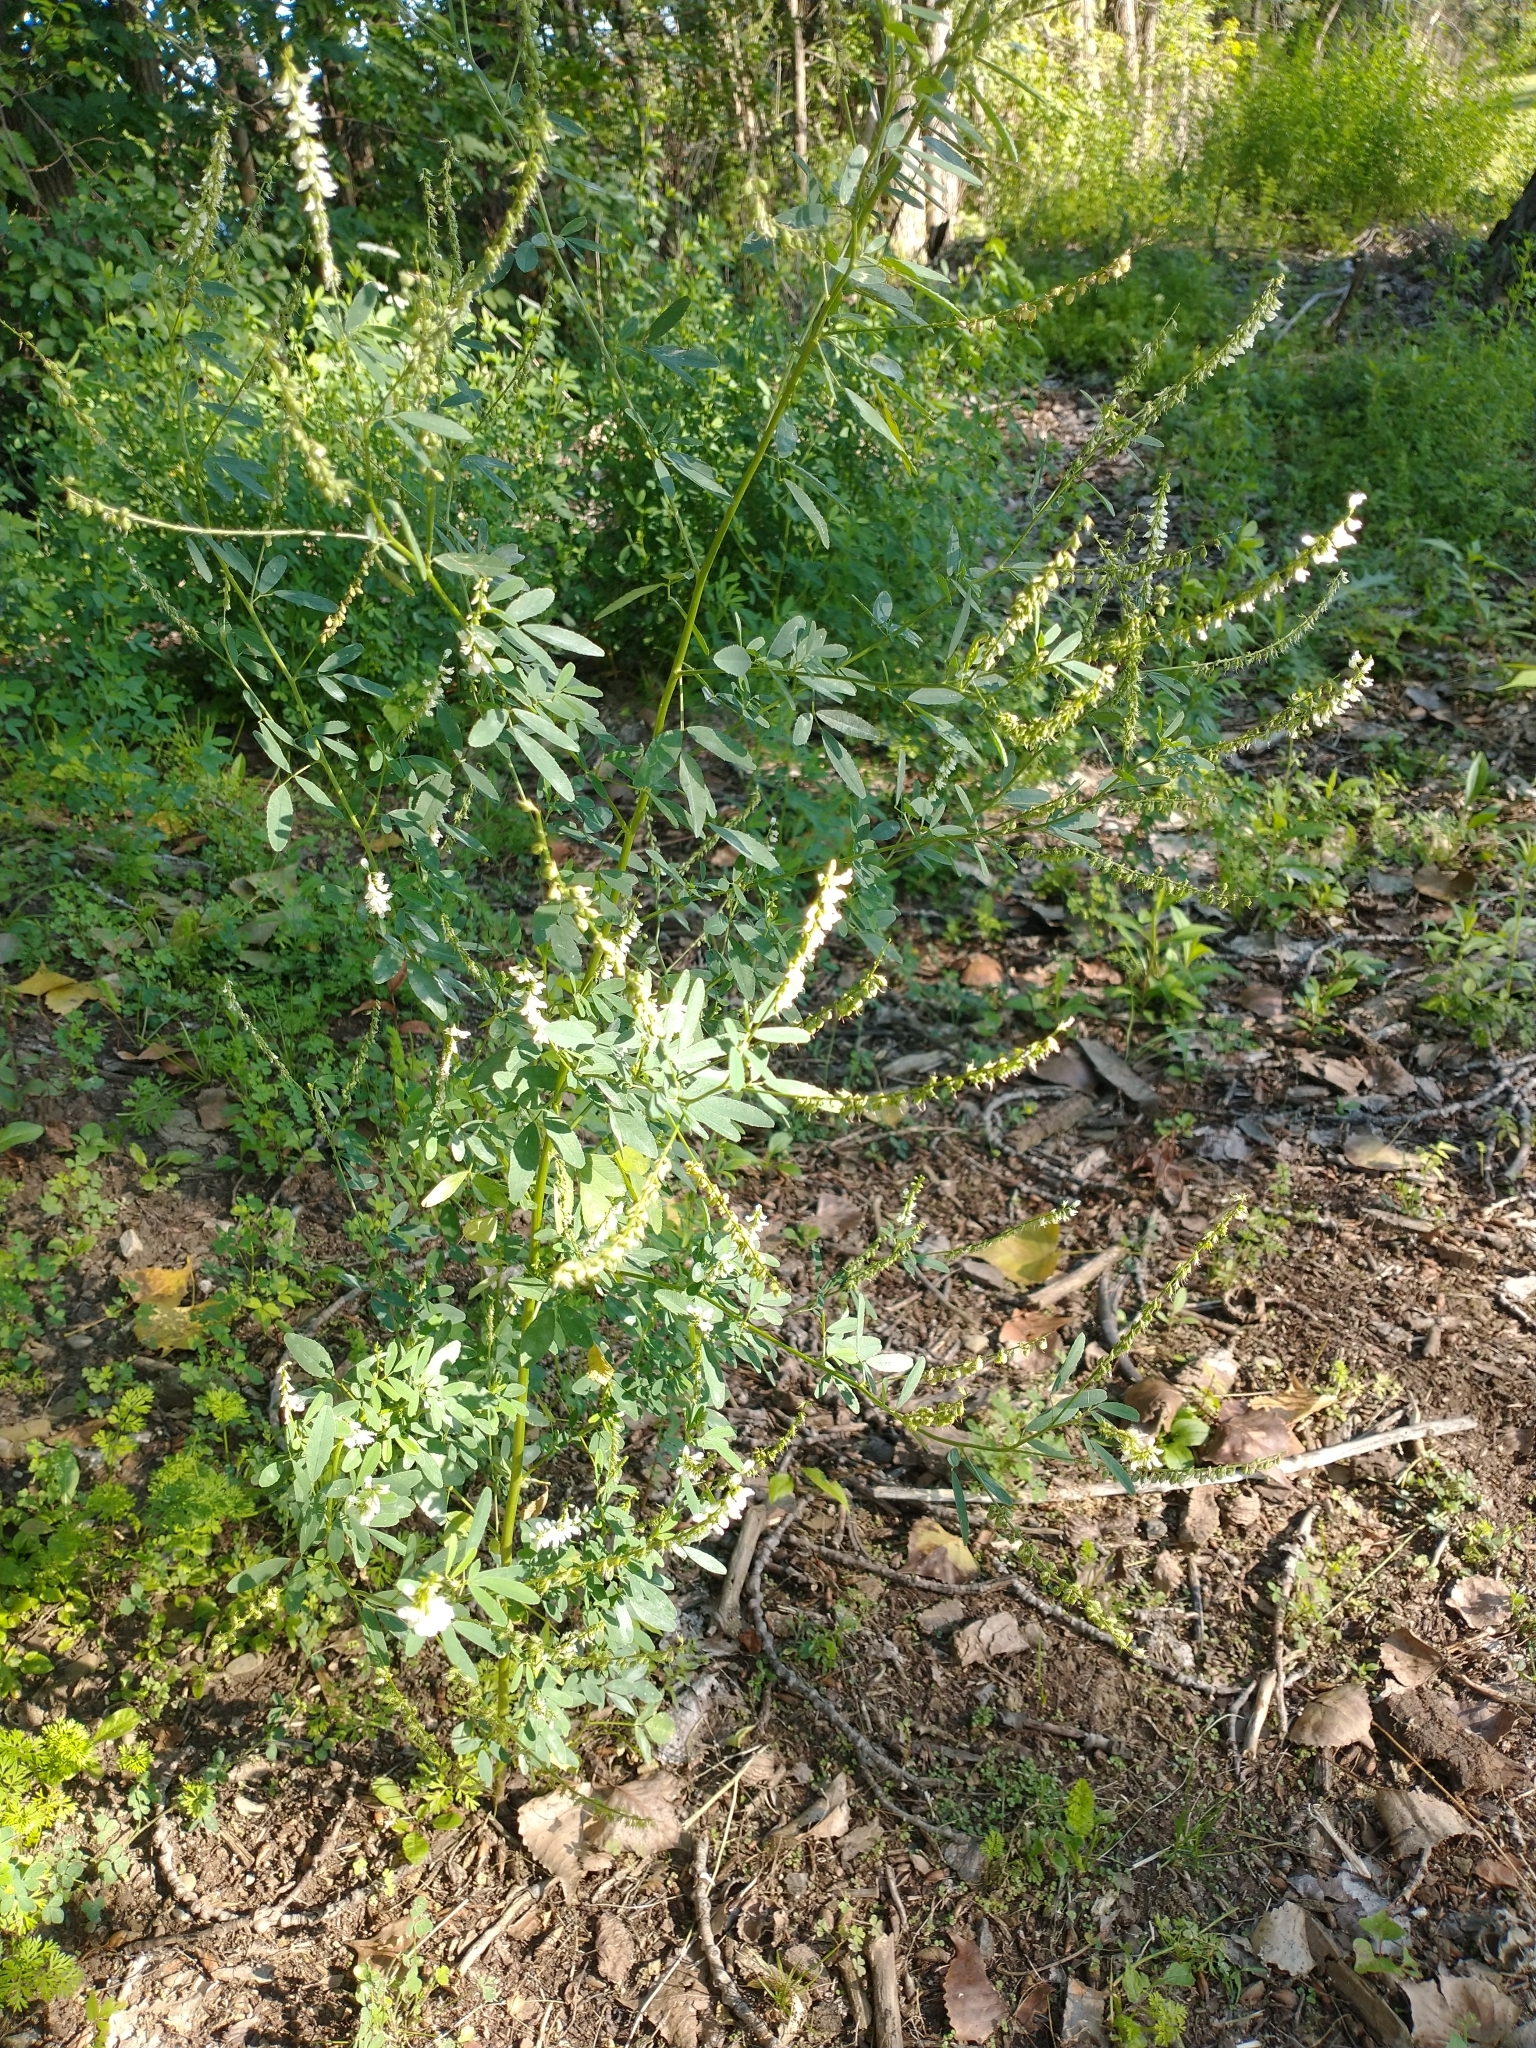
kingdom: Plantae
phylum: Tracheophyta
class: Magnoliopsida
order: Fabales
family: Fabaceae
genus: Melilotus
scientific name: Melilotus albus
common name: White melilot
